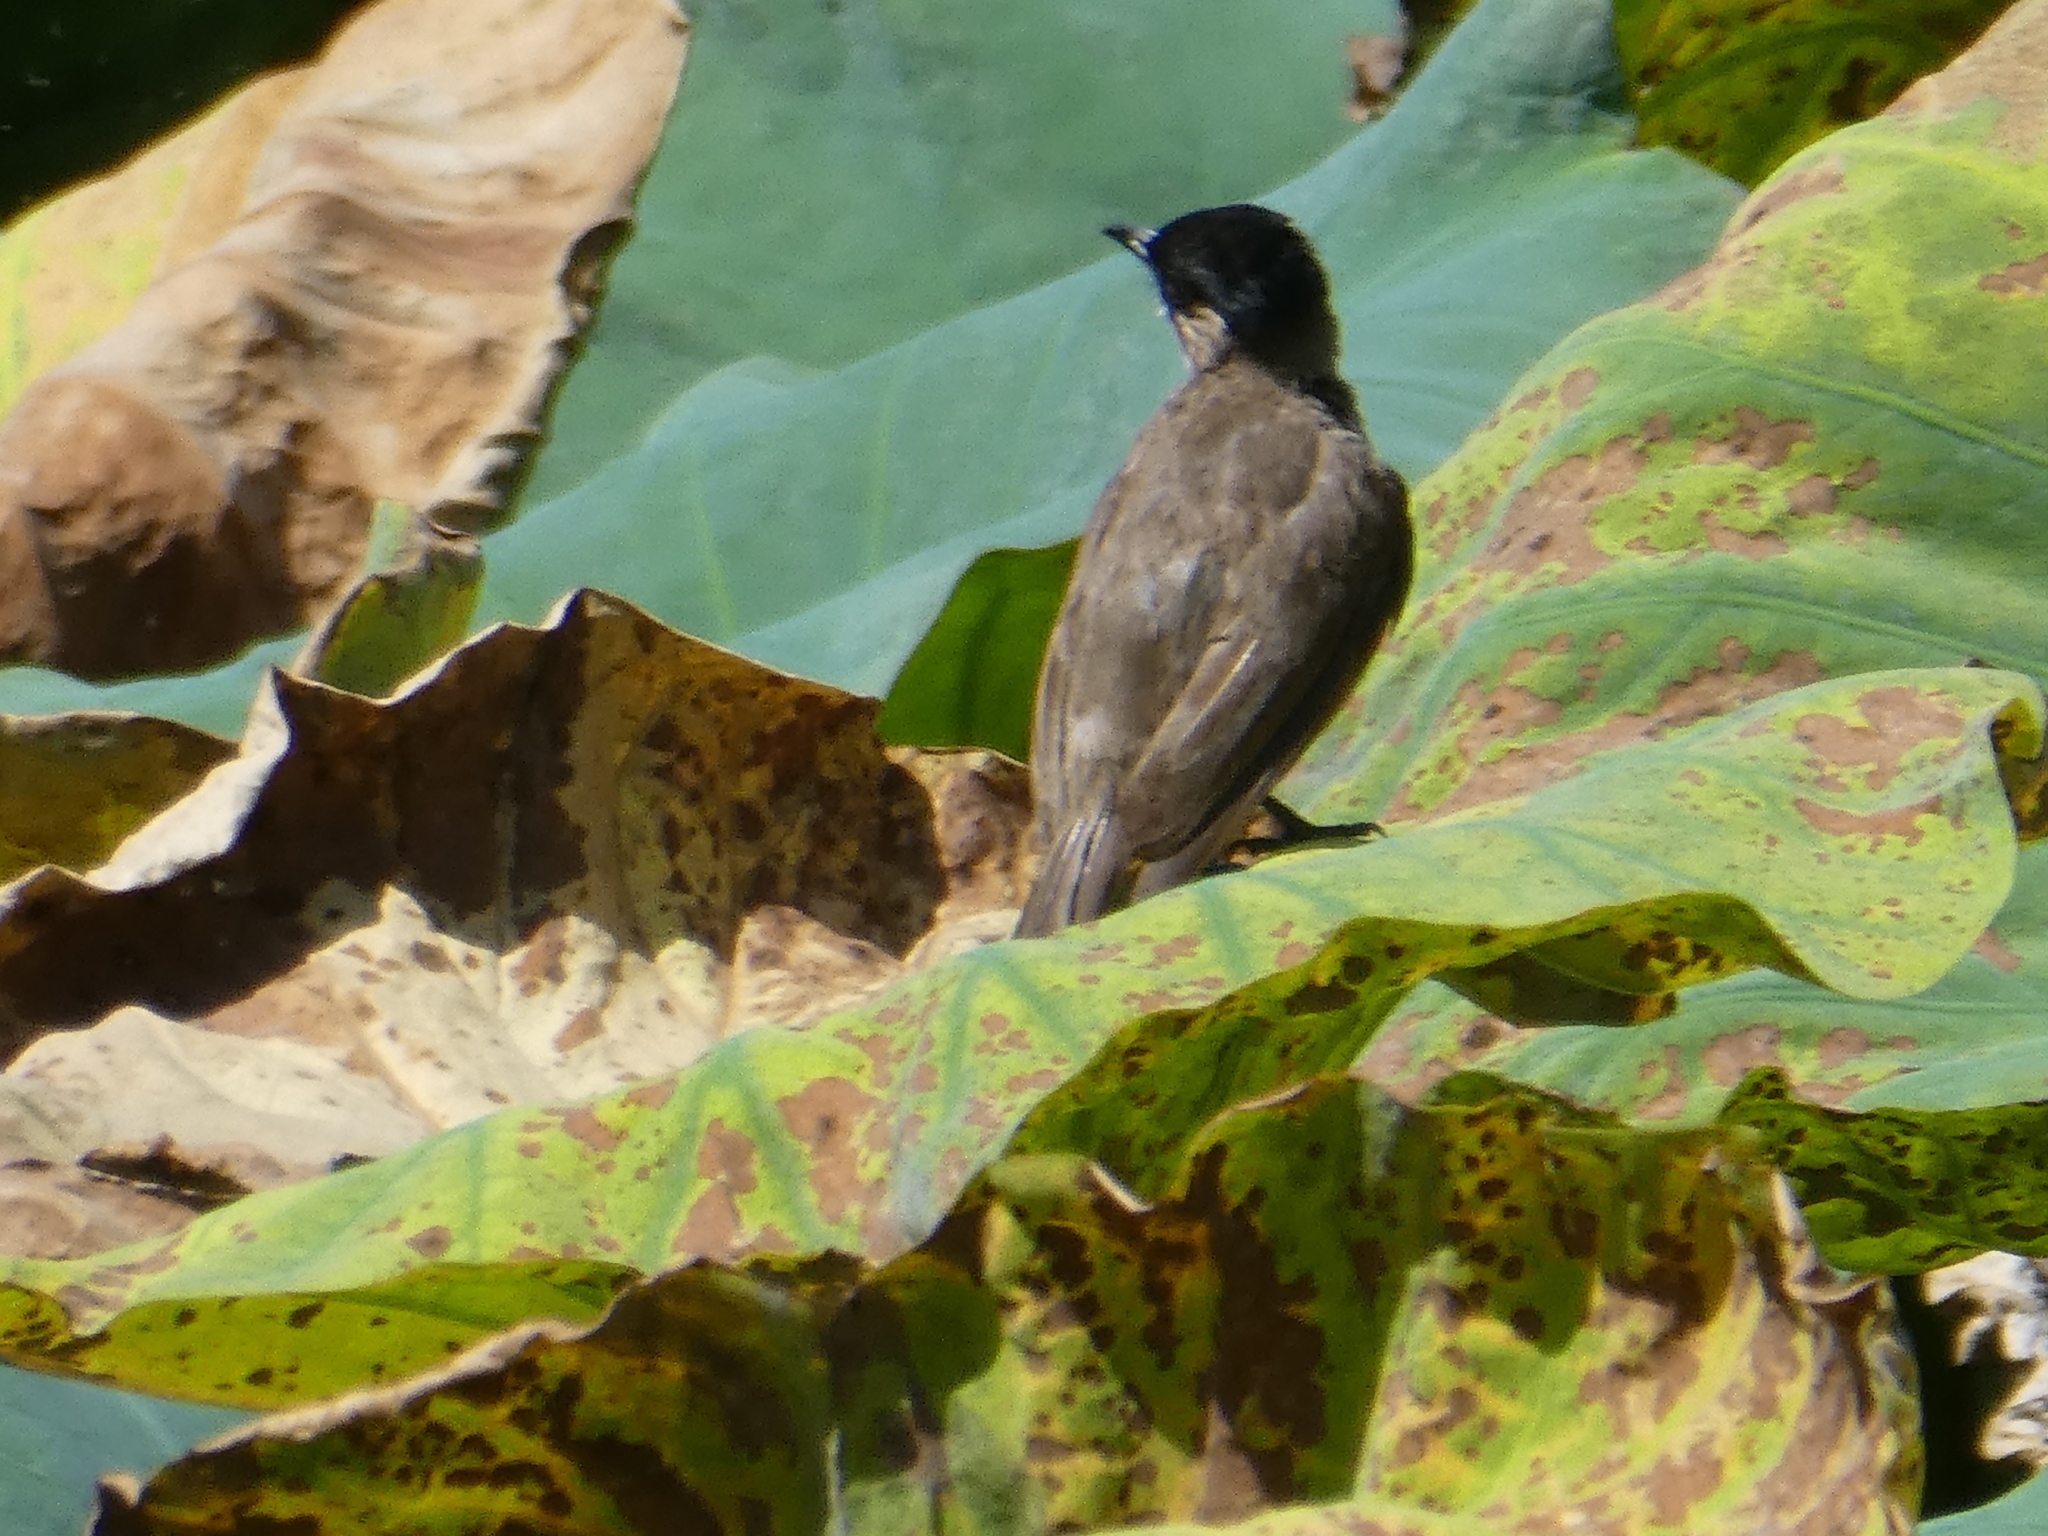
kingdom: Animalia
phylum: Chordata
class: Aves
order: Passeriformes
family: Pycnonotidae
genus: Pycnonotus
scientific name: Pycnonotus aurigaster
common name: Sooty-headed bulbul
